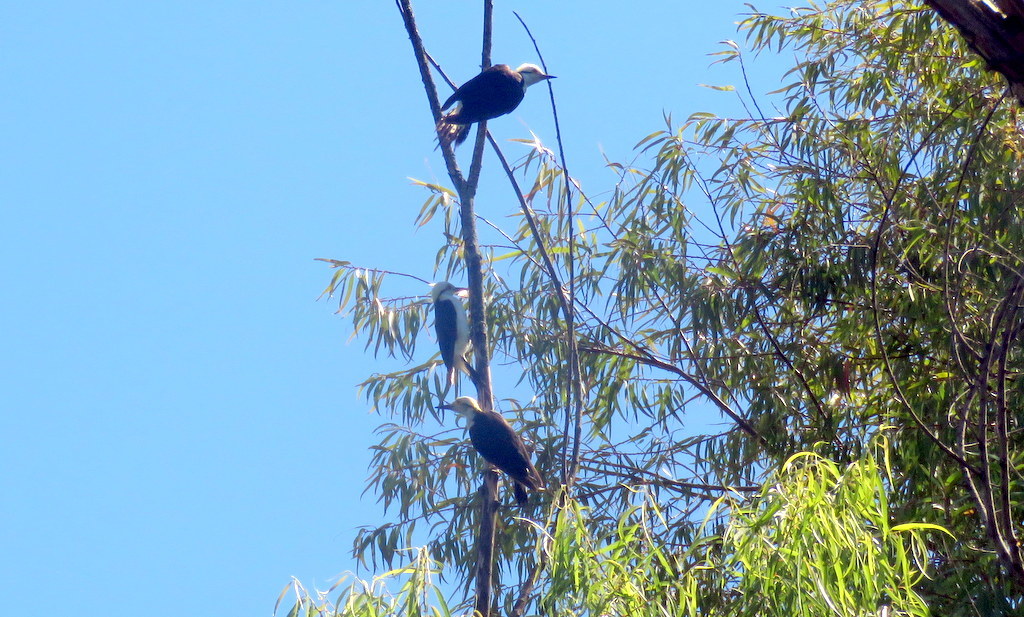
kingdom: Animalia
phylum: Chordata
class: Aves
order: Piciformes
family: Picidae
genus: Melanerpes
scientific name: Melanerpes candidus
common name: White woodpecker
